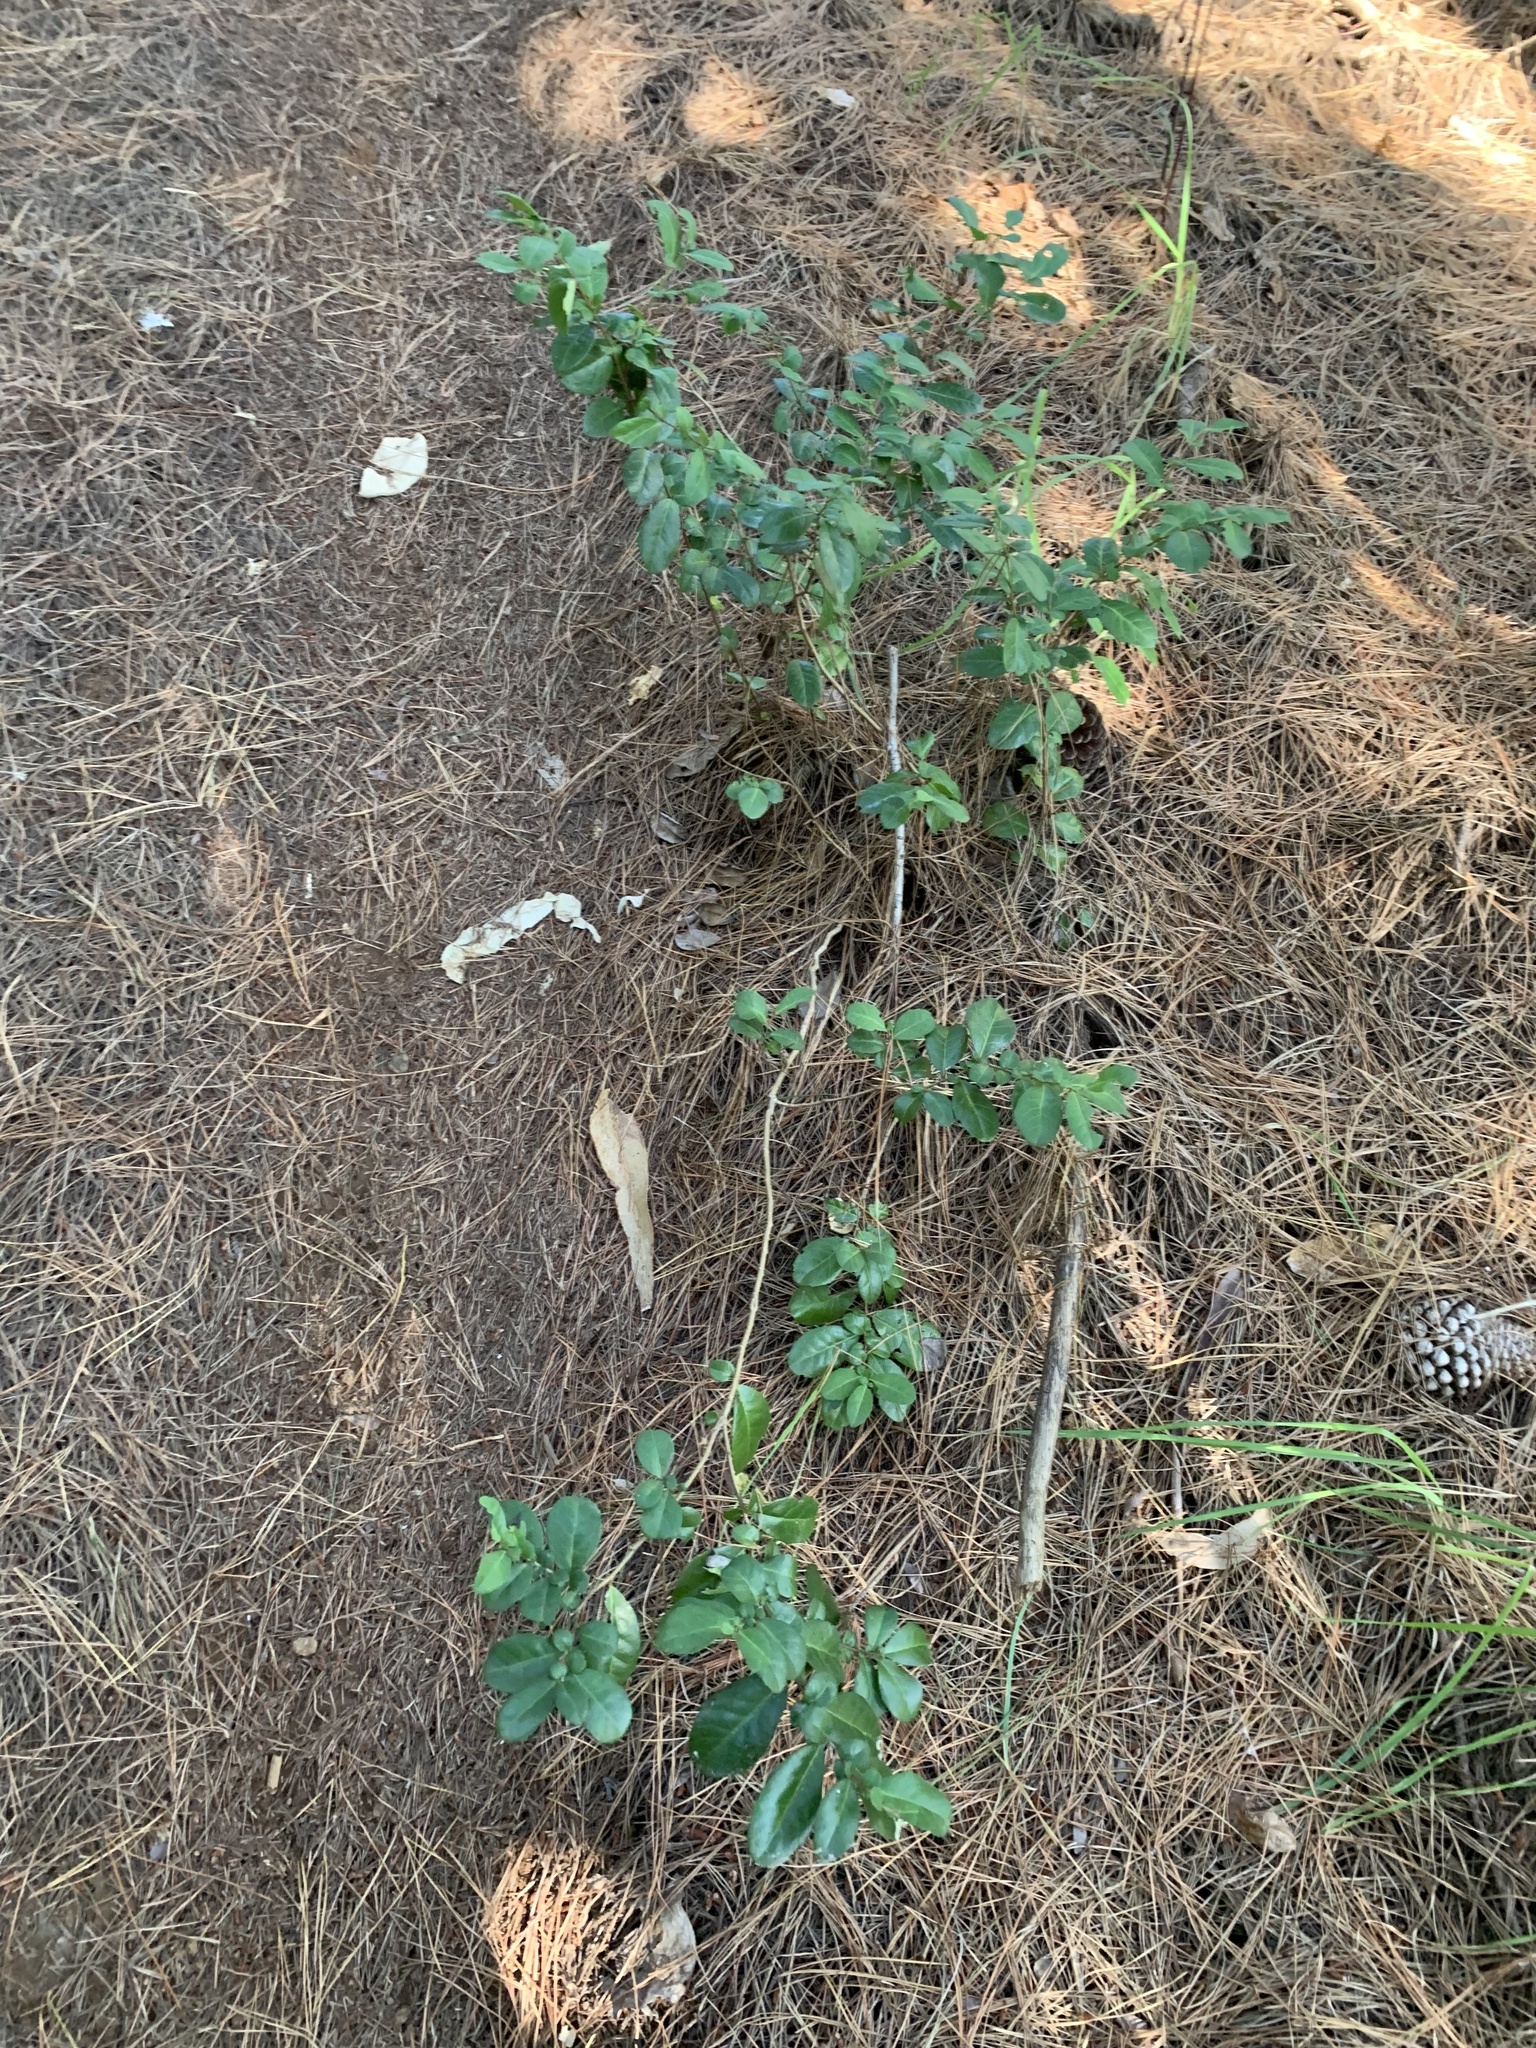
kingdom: Plantae
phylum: Tracheophyta
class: Magnoliopsida
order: Malpighiales
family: Salicaceae
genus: Azara
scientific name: Azara integrifolia
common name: Goldspire
